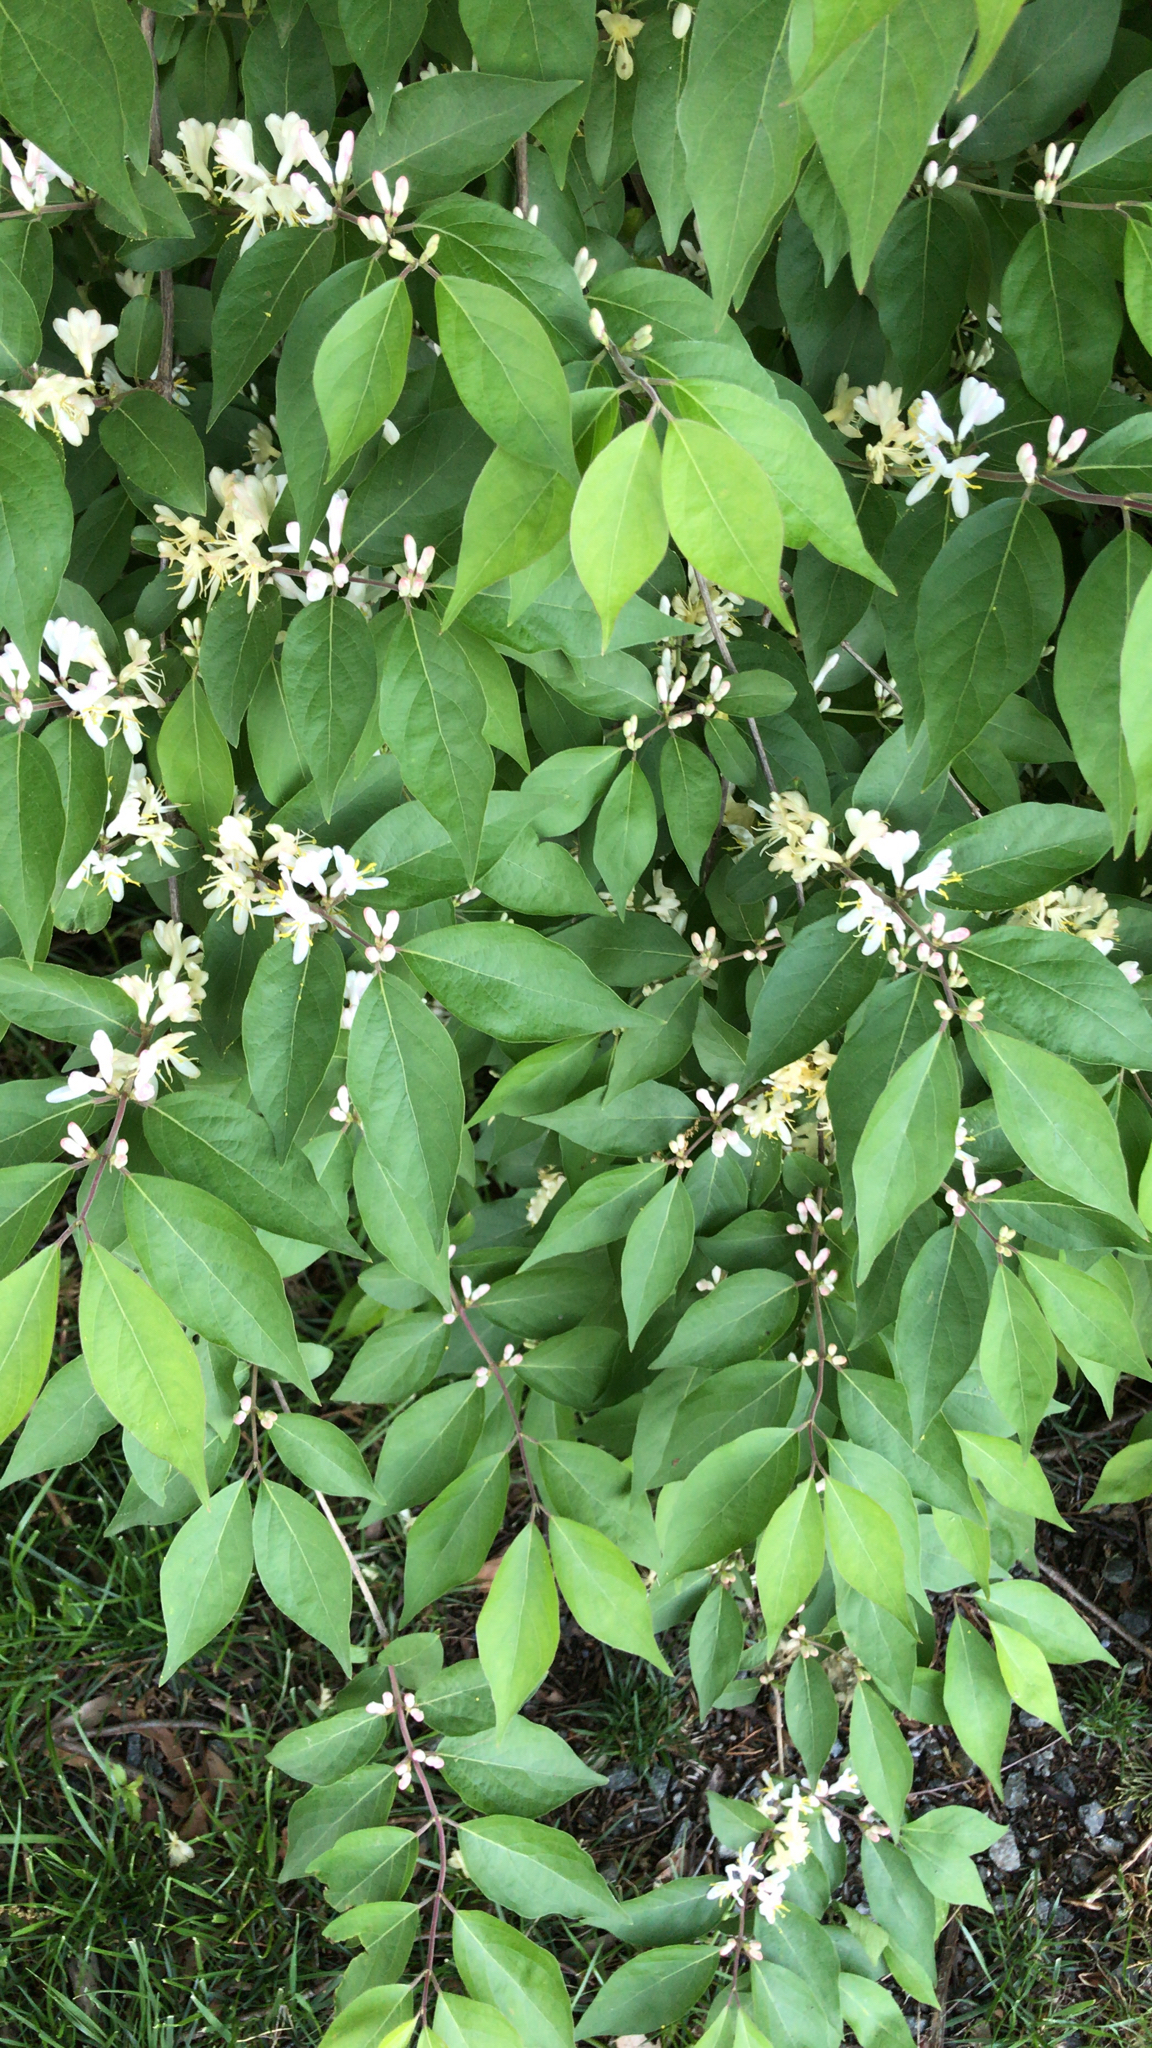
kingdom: Plantae
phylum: Tracheophyta
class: Magnoliopsida
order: Dipsacales
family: Caprifoliaceae
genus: Lonicera
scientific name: Lonicera maackii
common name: Amur honeysuckle
